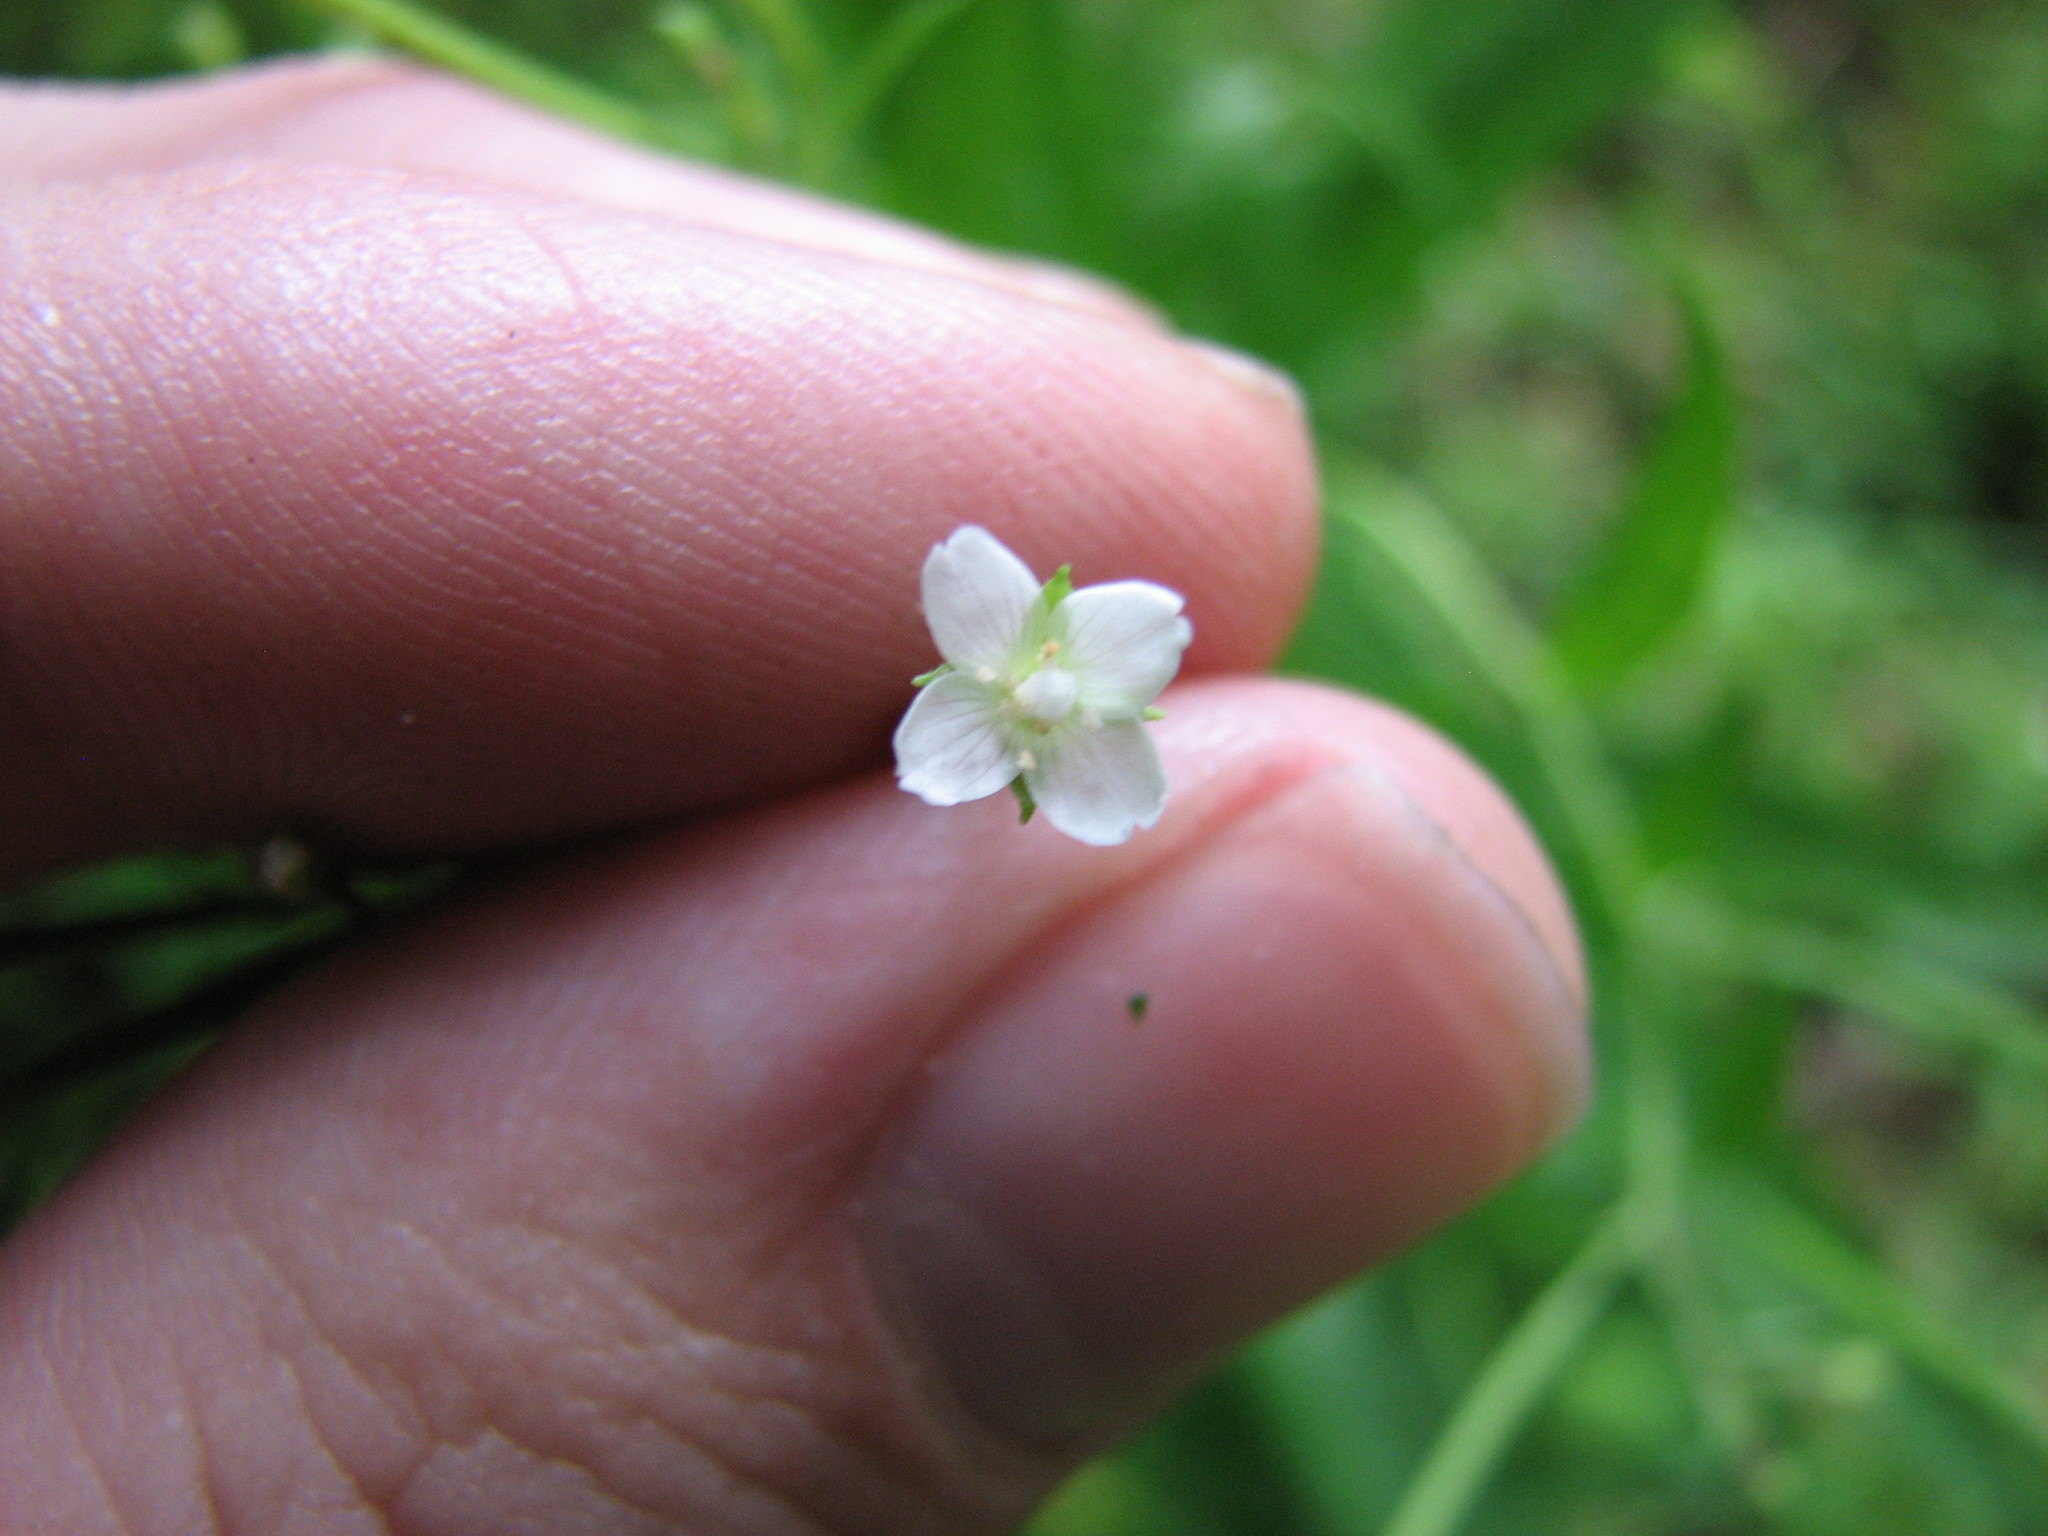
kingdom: Plantae
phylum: Tracheophyta
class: Magnoliopsida
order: Myrtales
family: Onagraceae
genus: Epilobium
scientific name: Epilobium coloratum
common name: Bronze willowherb
